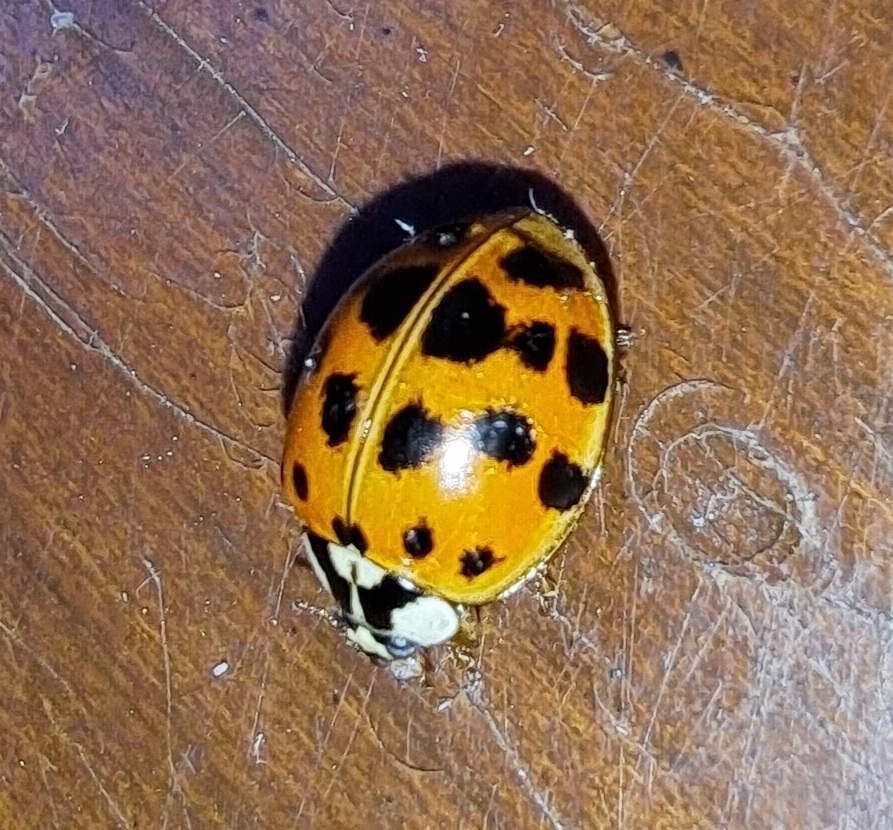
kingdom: Animalia
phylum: Arthropoda
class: Insecta
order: Coleoptera
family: Coccinellidae
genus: Harmonia
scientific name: Harmonia axyridis
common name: Harlequin ladybird
